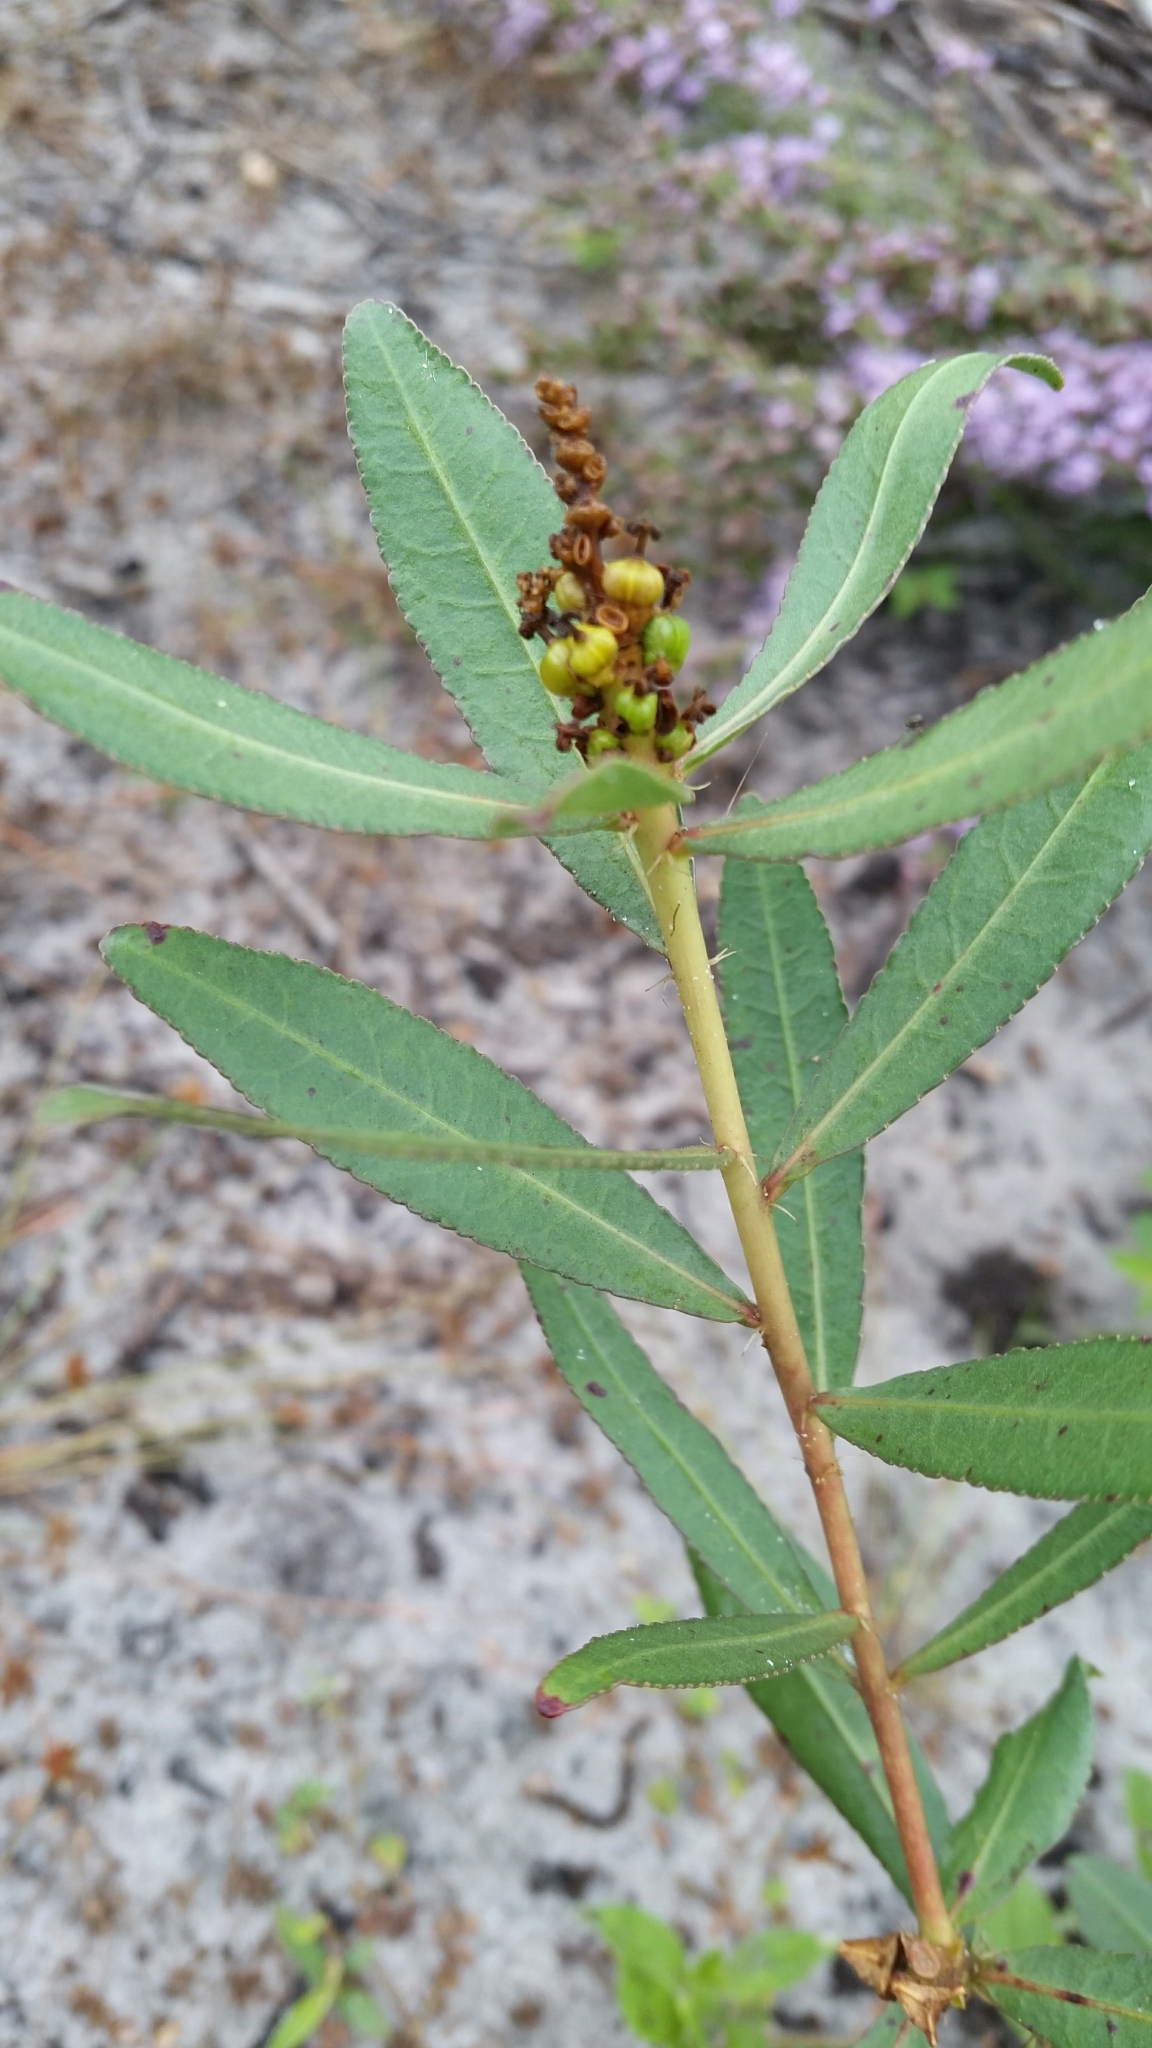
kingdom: Plantae
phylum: Tracheophyta
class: Magnoliopsida
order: Malpighiales
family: Euphorbiaceae
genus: Stillingia
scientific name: Stillingia sylvatica
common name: Queen's-delight
